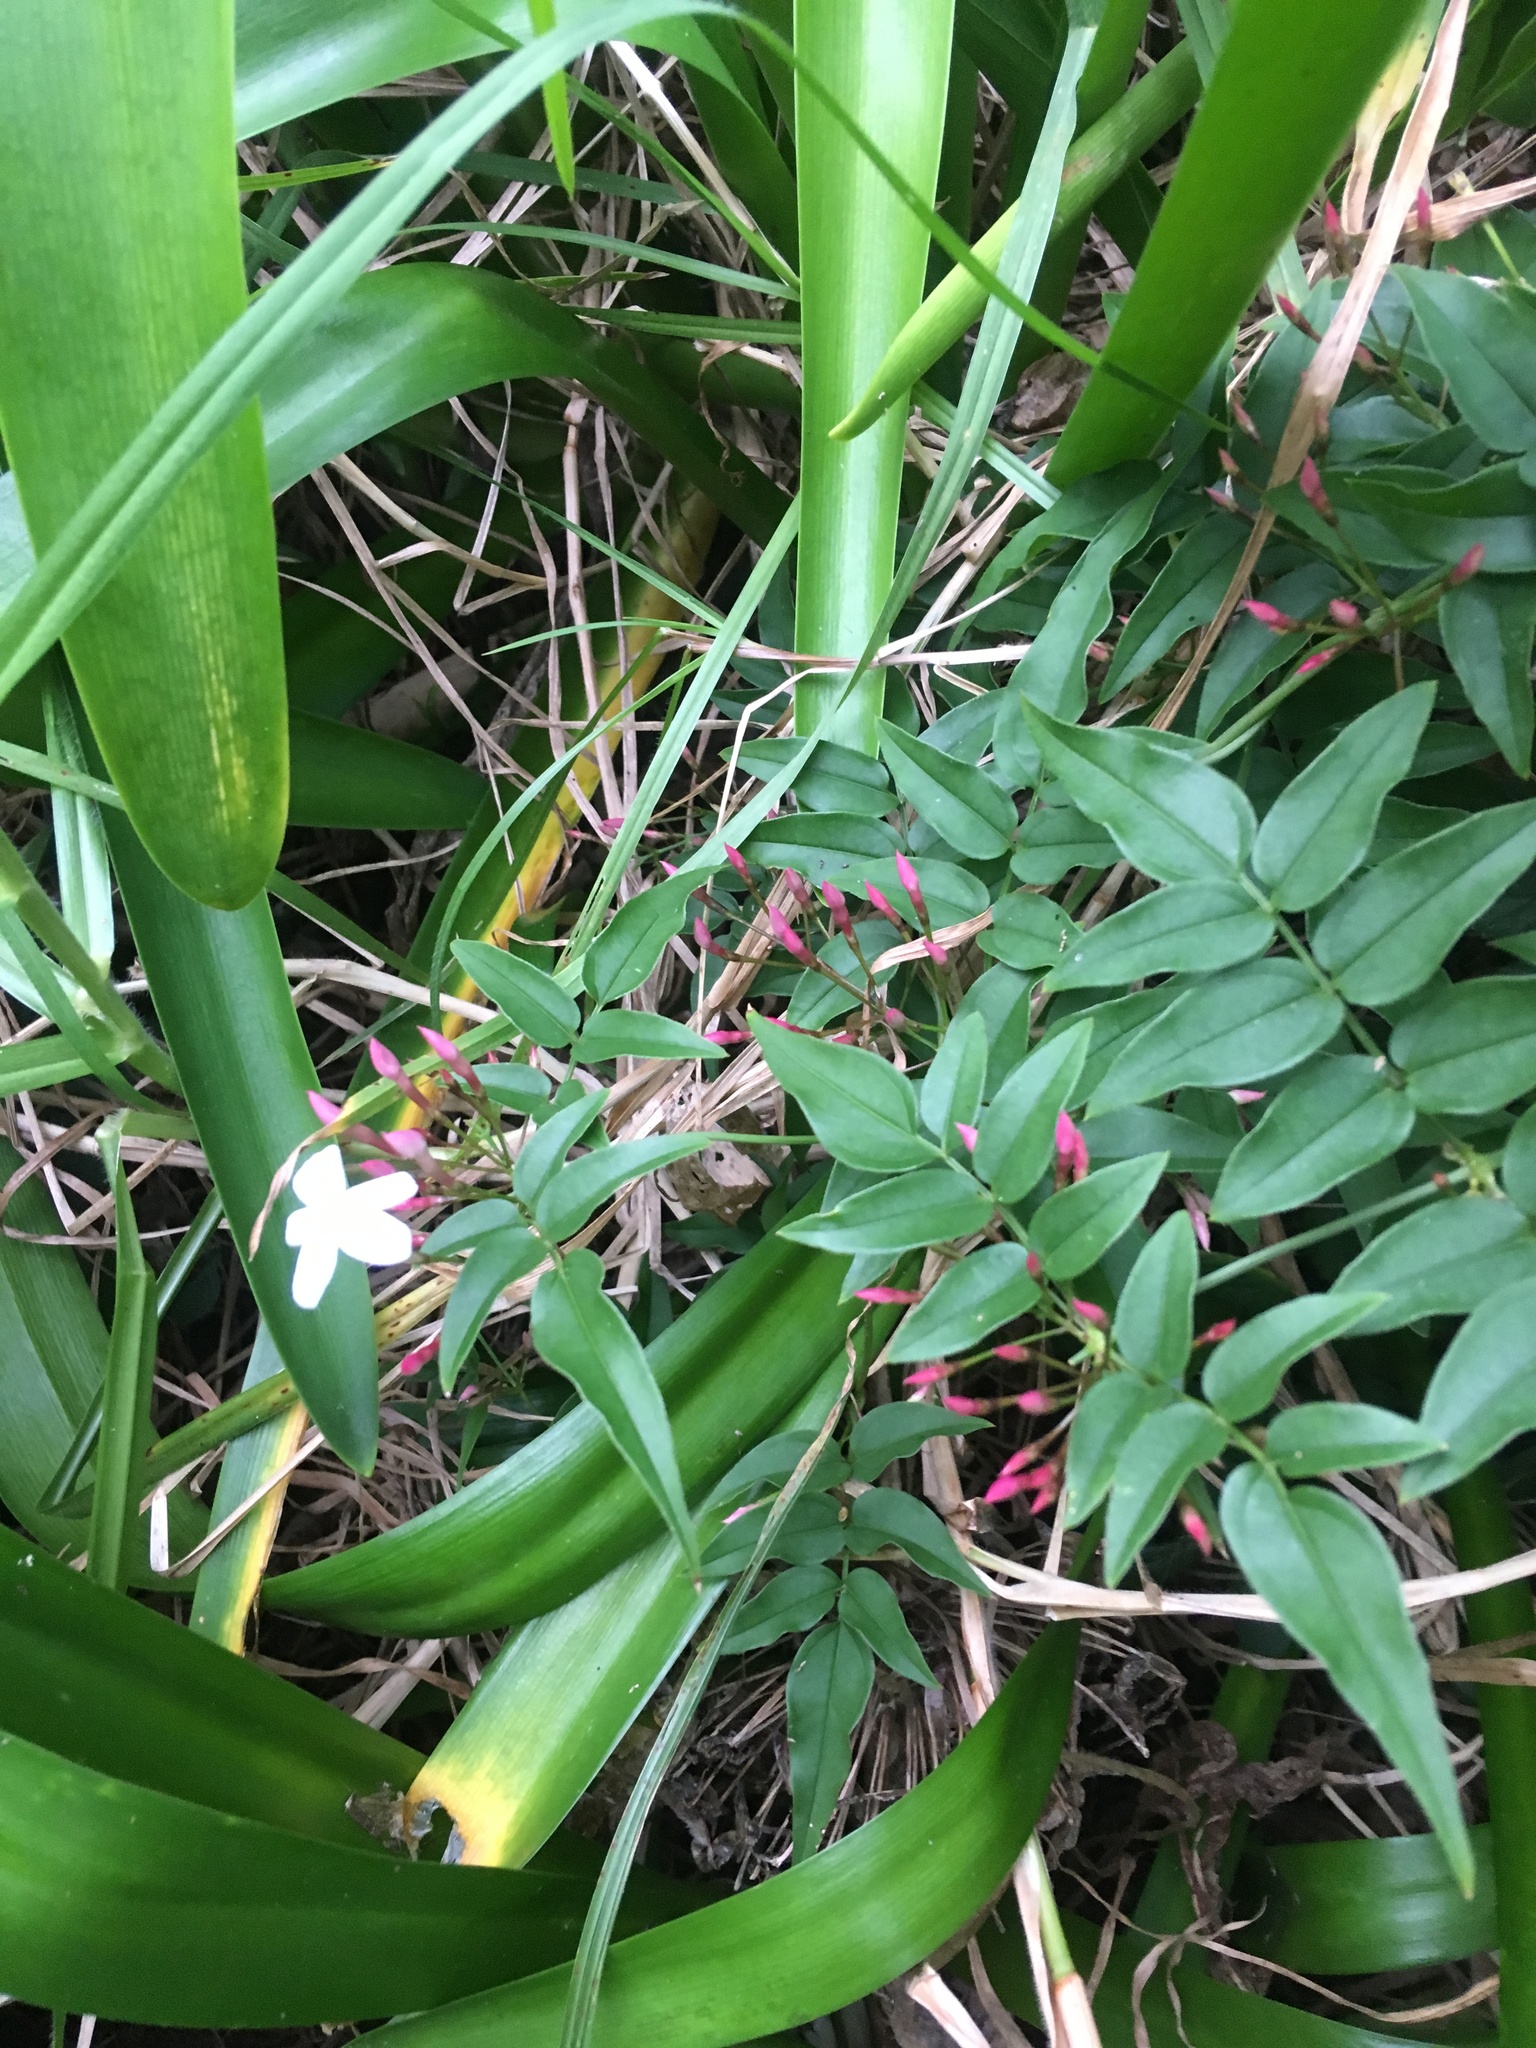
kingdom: Plantae
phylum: Tracheophyta
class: Magnoliopsida
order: Lamiales
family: Oleaceae
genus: Jasminum
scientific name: Jasminum polyanthum
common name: Pink jasmine
